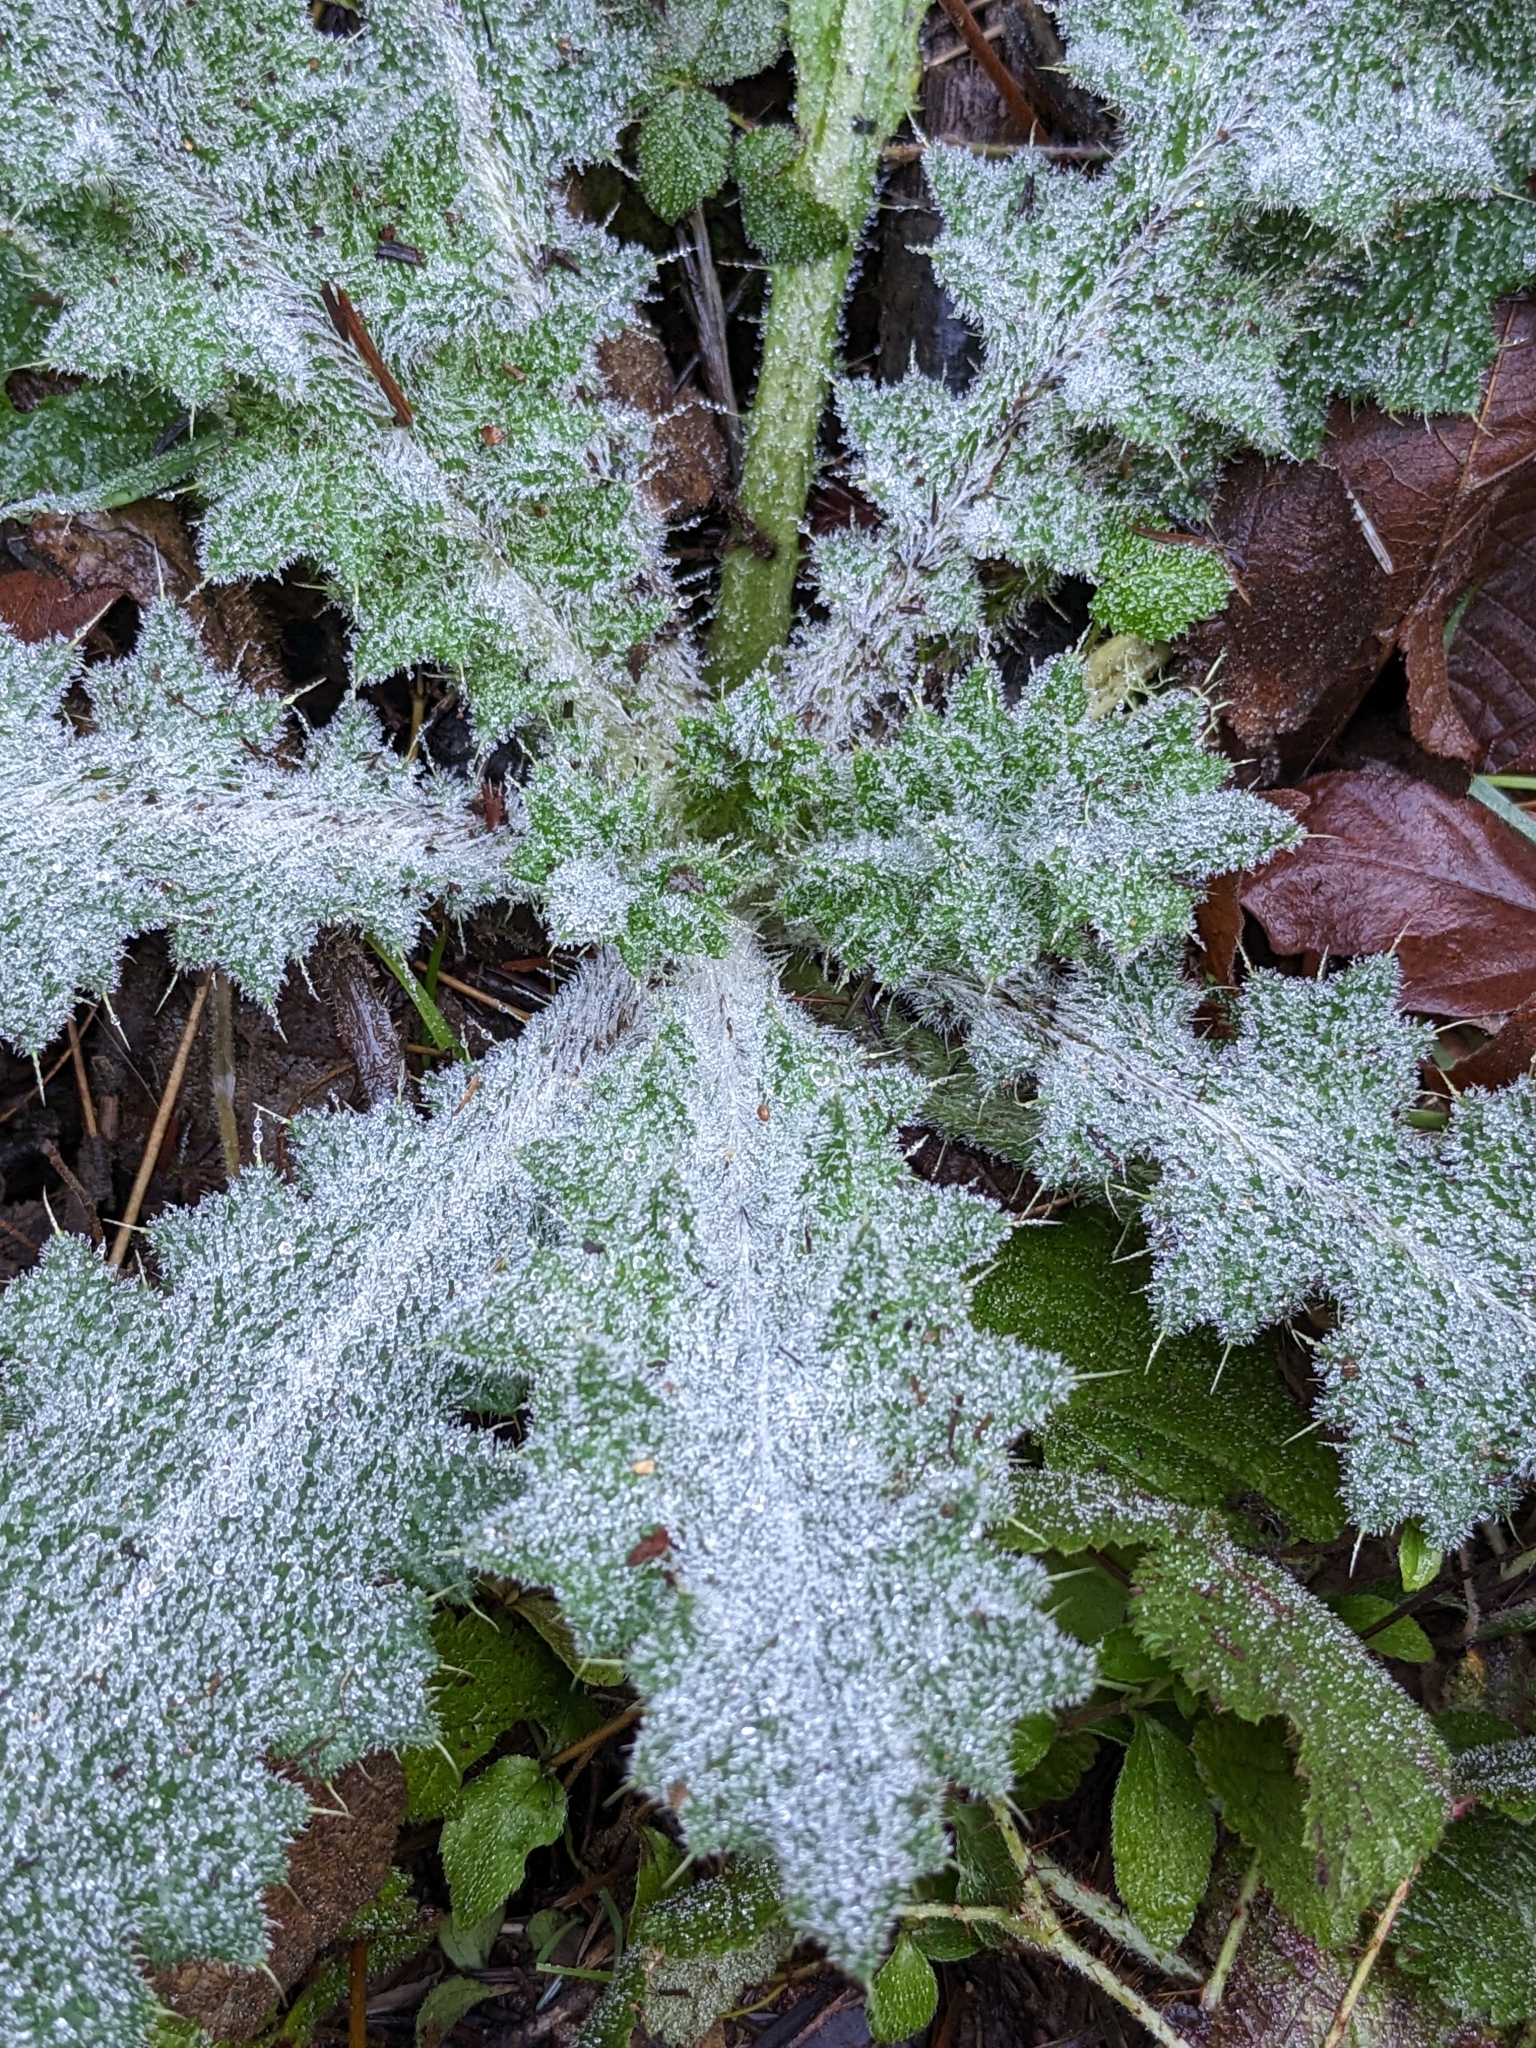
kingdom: Plantae
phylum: Tracheophyta
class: Magnoliopsida
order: Asterales
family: Asteraceae
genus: Cirsium
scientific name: Cirsium vulgare
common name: Bull thistle
